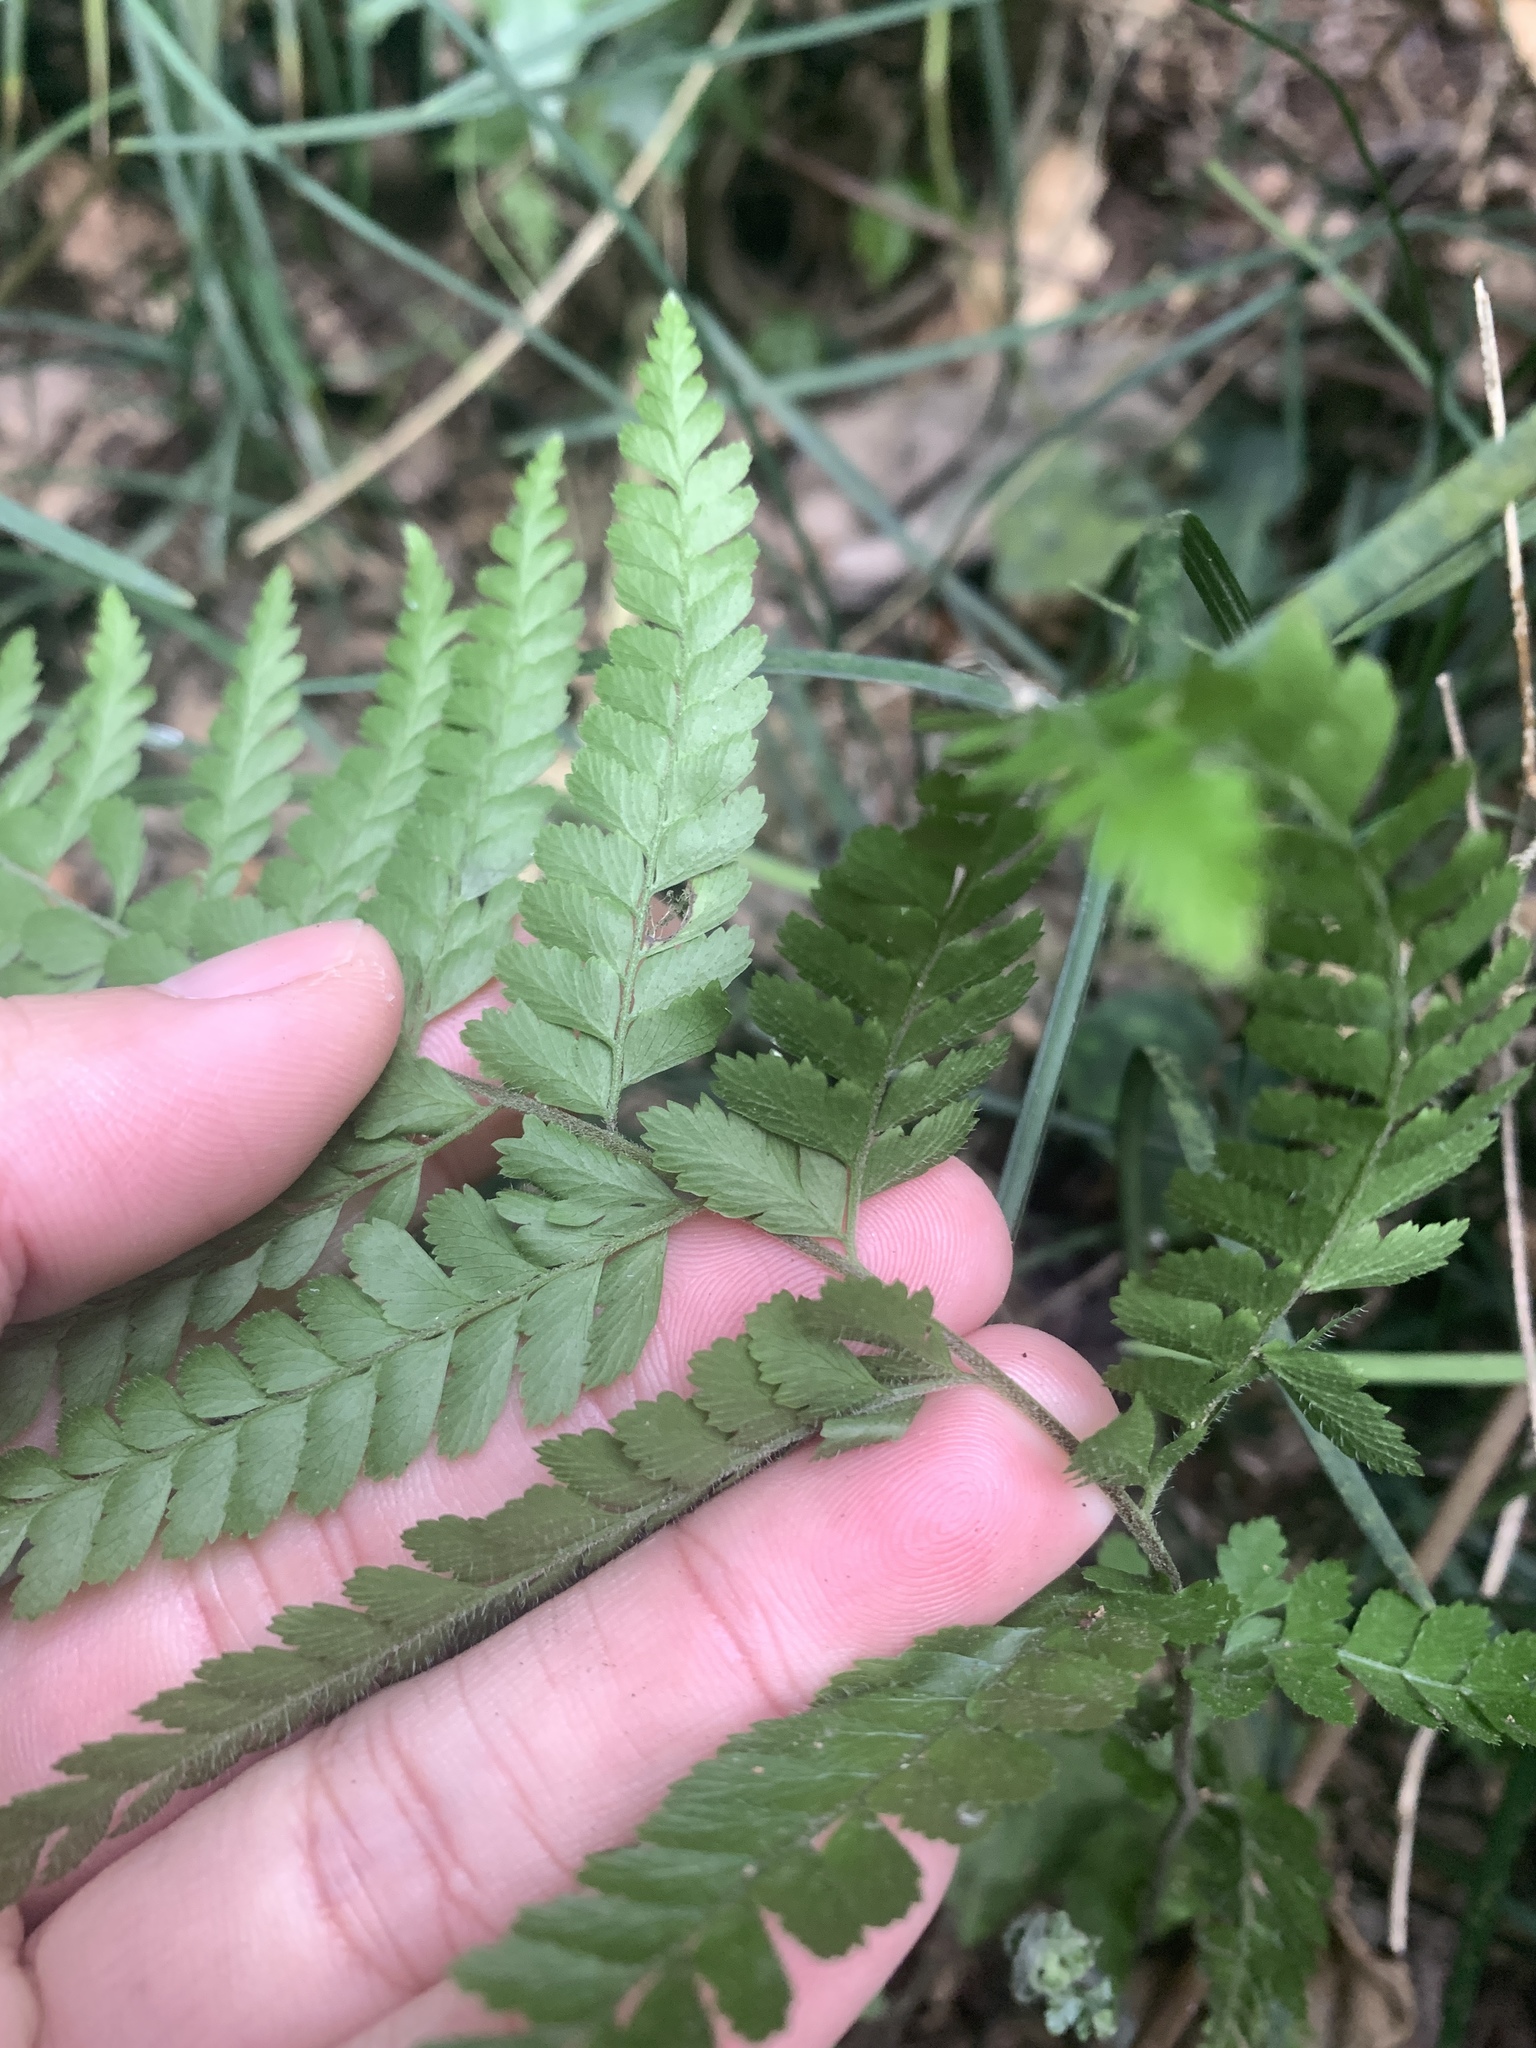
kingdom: Plantae
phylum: Tracheophyta
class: Polypodiopsida
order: Polypodiales
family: Dennstaedtiaceae
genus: Microlepia
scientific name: Microlepia strigosa
